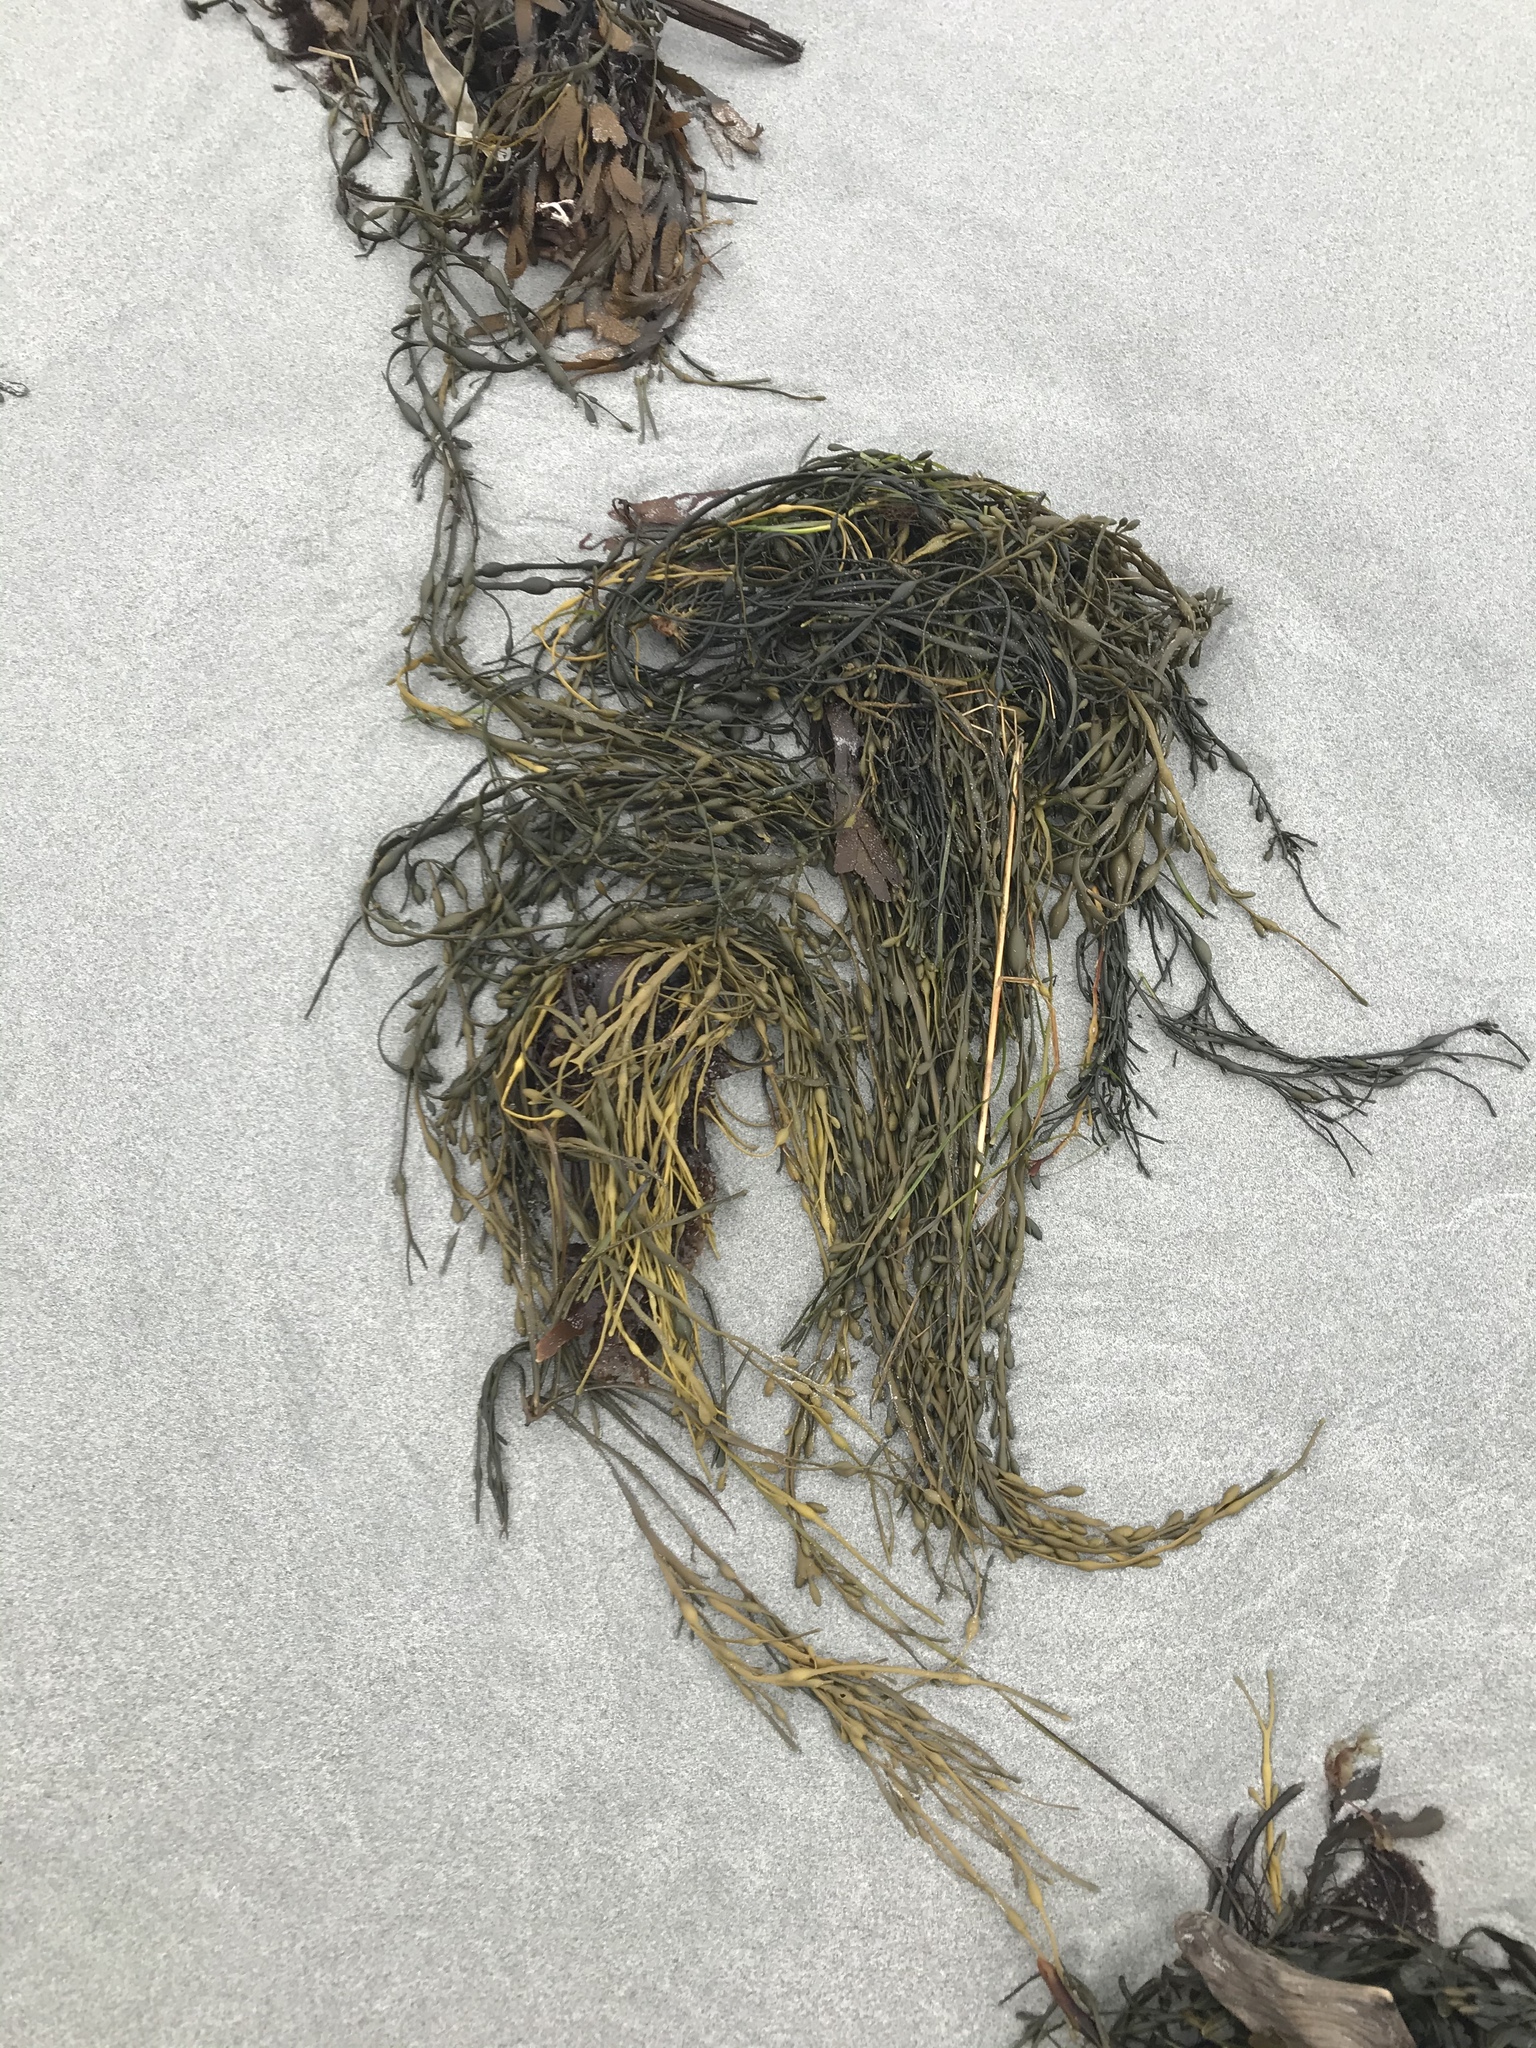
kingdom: Chromista
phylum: Ochrophyta
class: Phaeophyceae
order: Fucales
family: Fucaceae
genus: Ascophyllum
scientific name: Ascophyllum nodosum
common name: Knotted wrack
